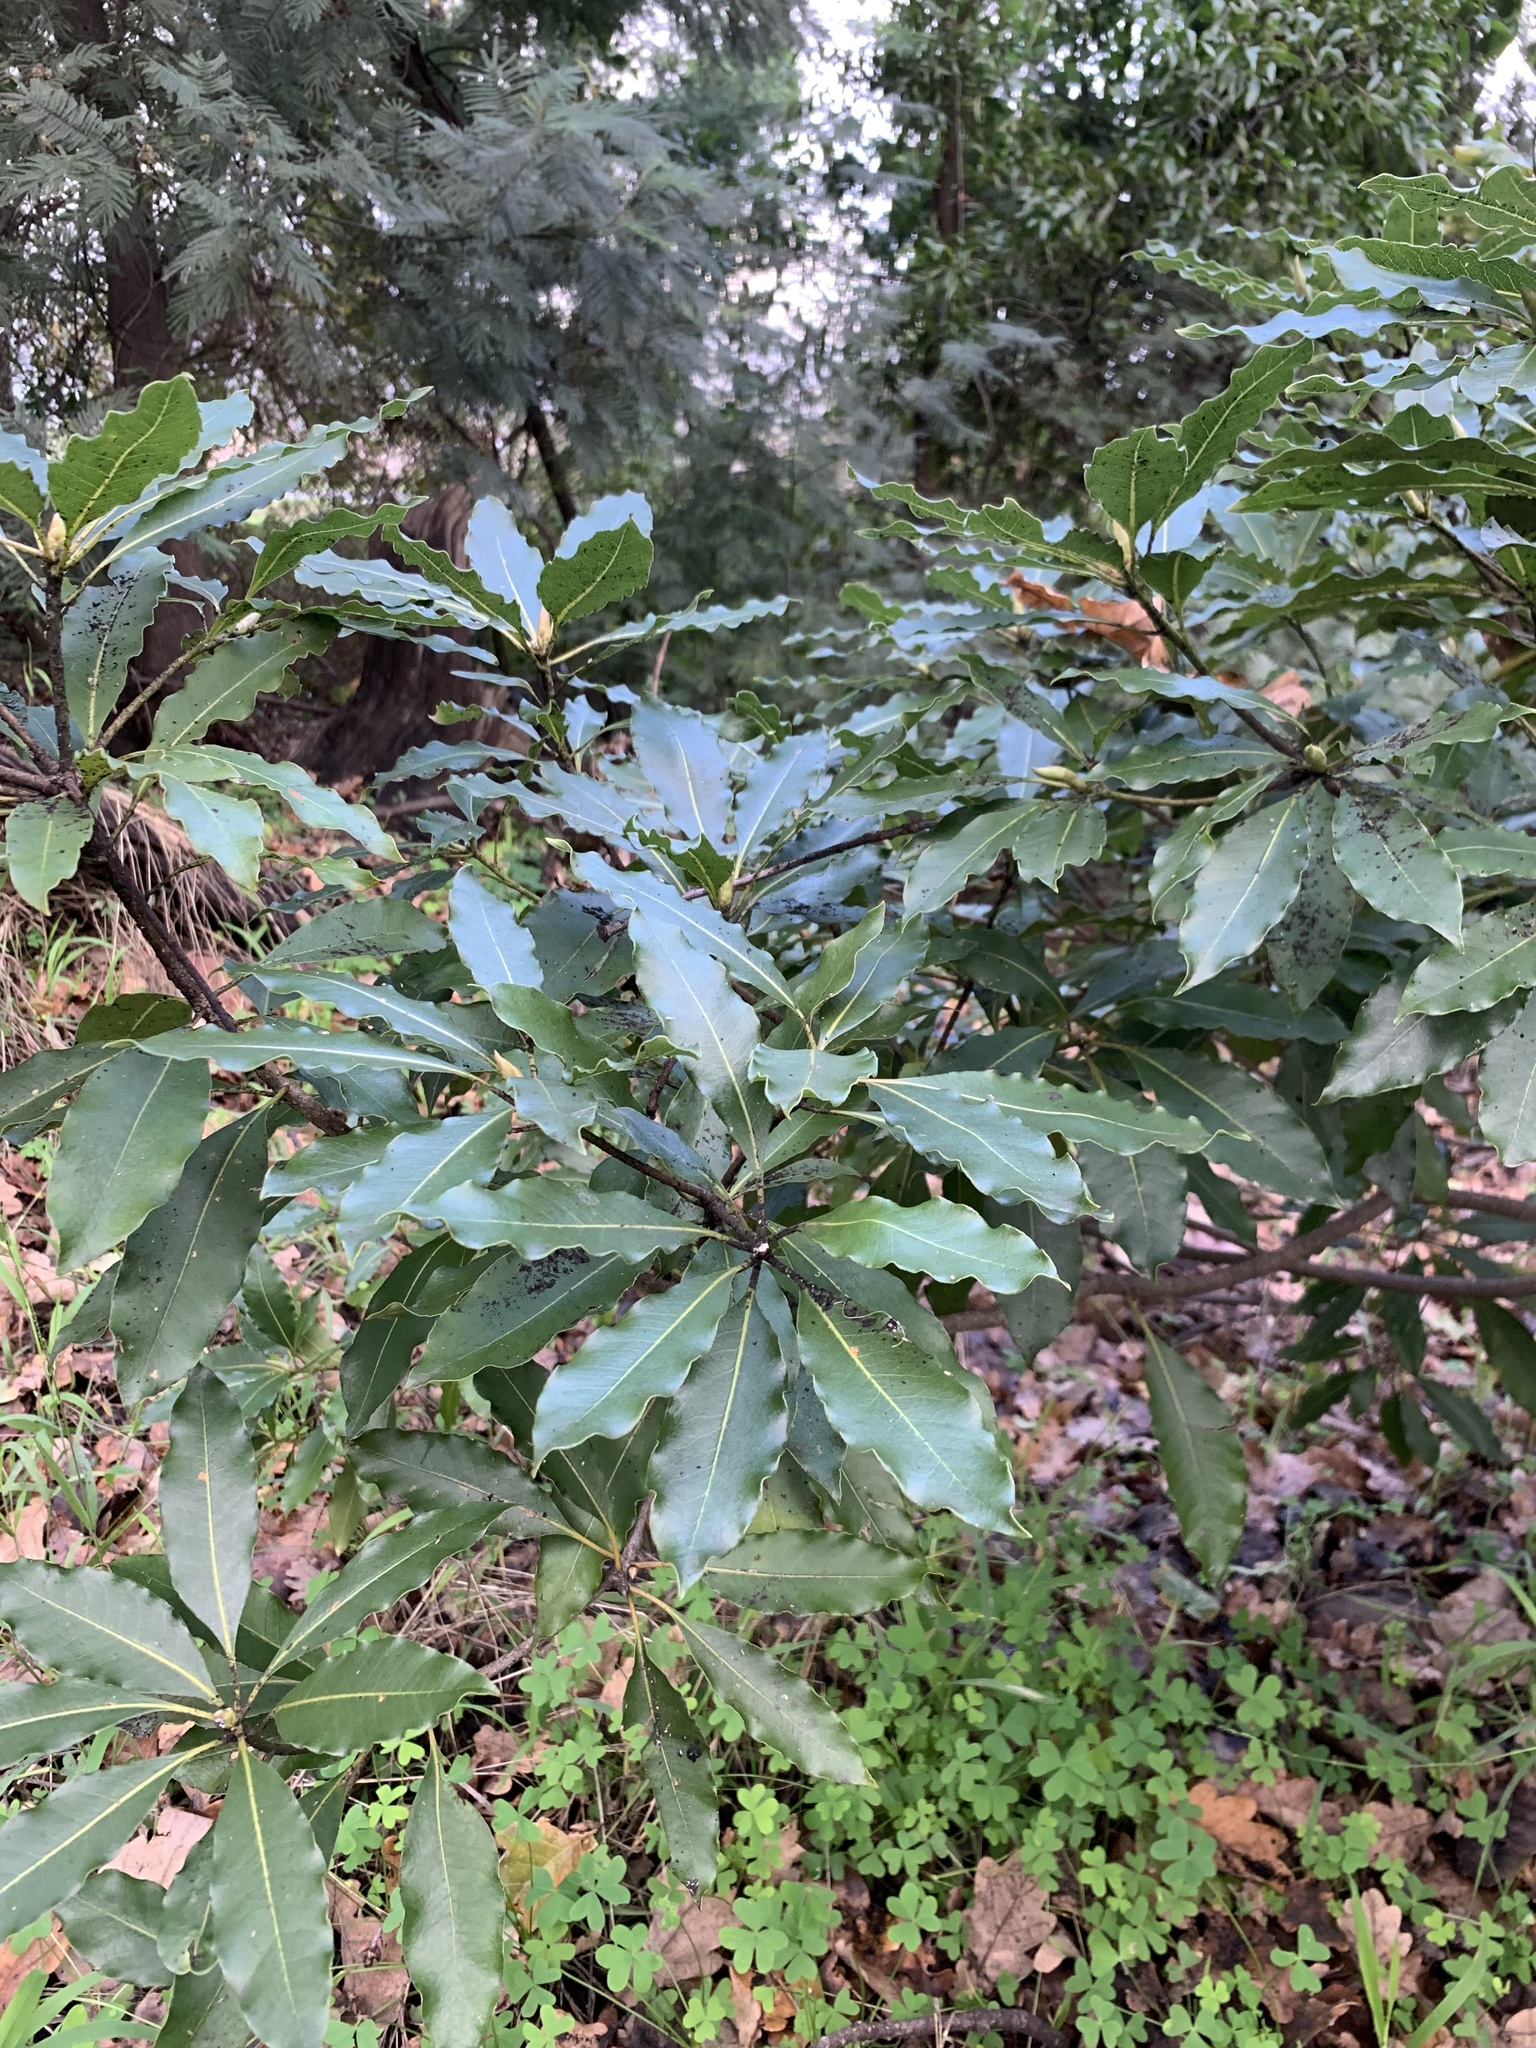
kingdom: Plantae
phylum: Tracheophyta
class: Magnoliopsida
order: Apiales
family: Pittosporaceae
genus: Pittosporum
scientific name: Pittosporum undulatum
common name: Australian cheesewood
